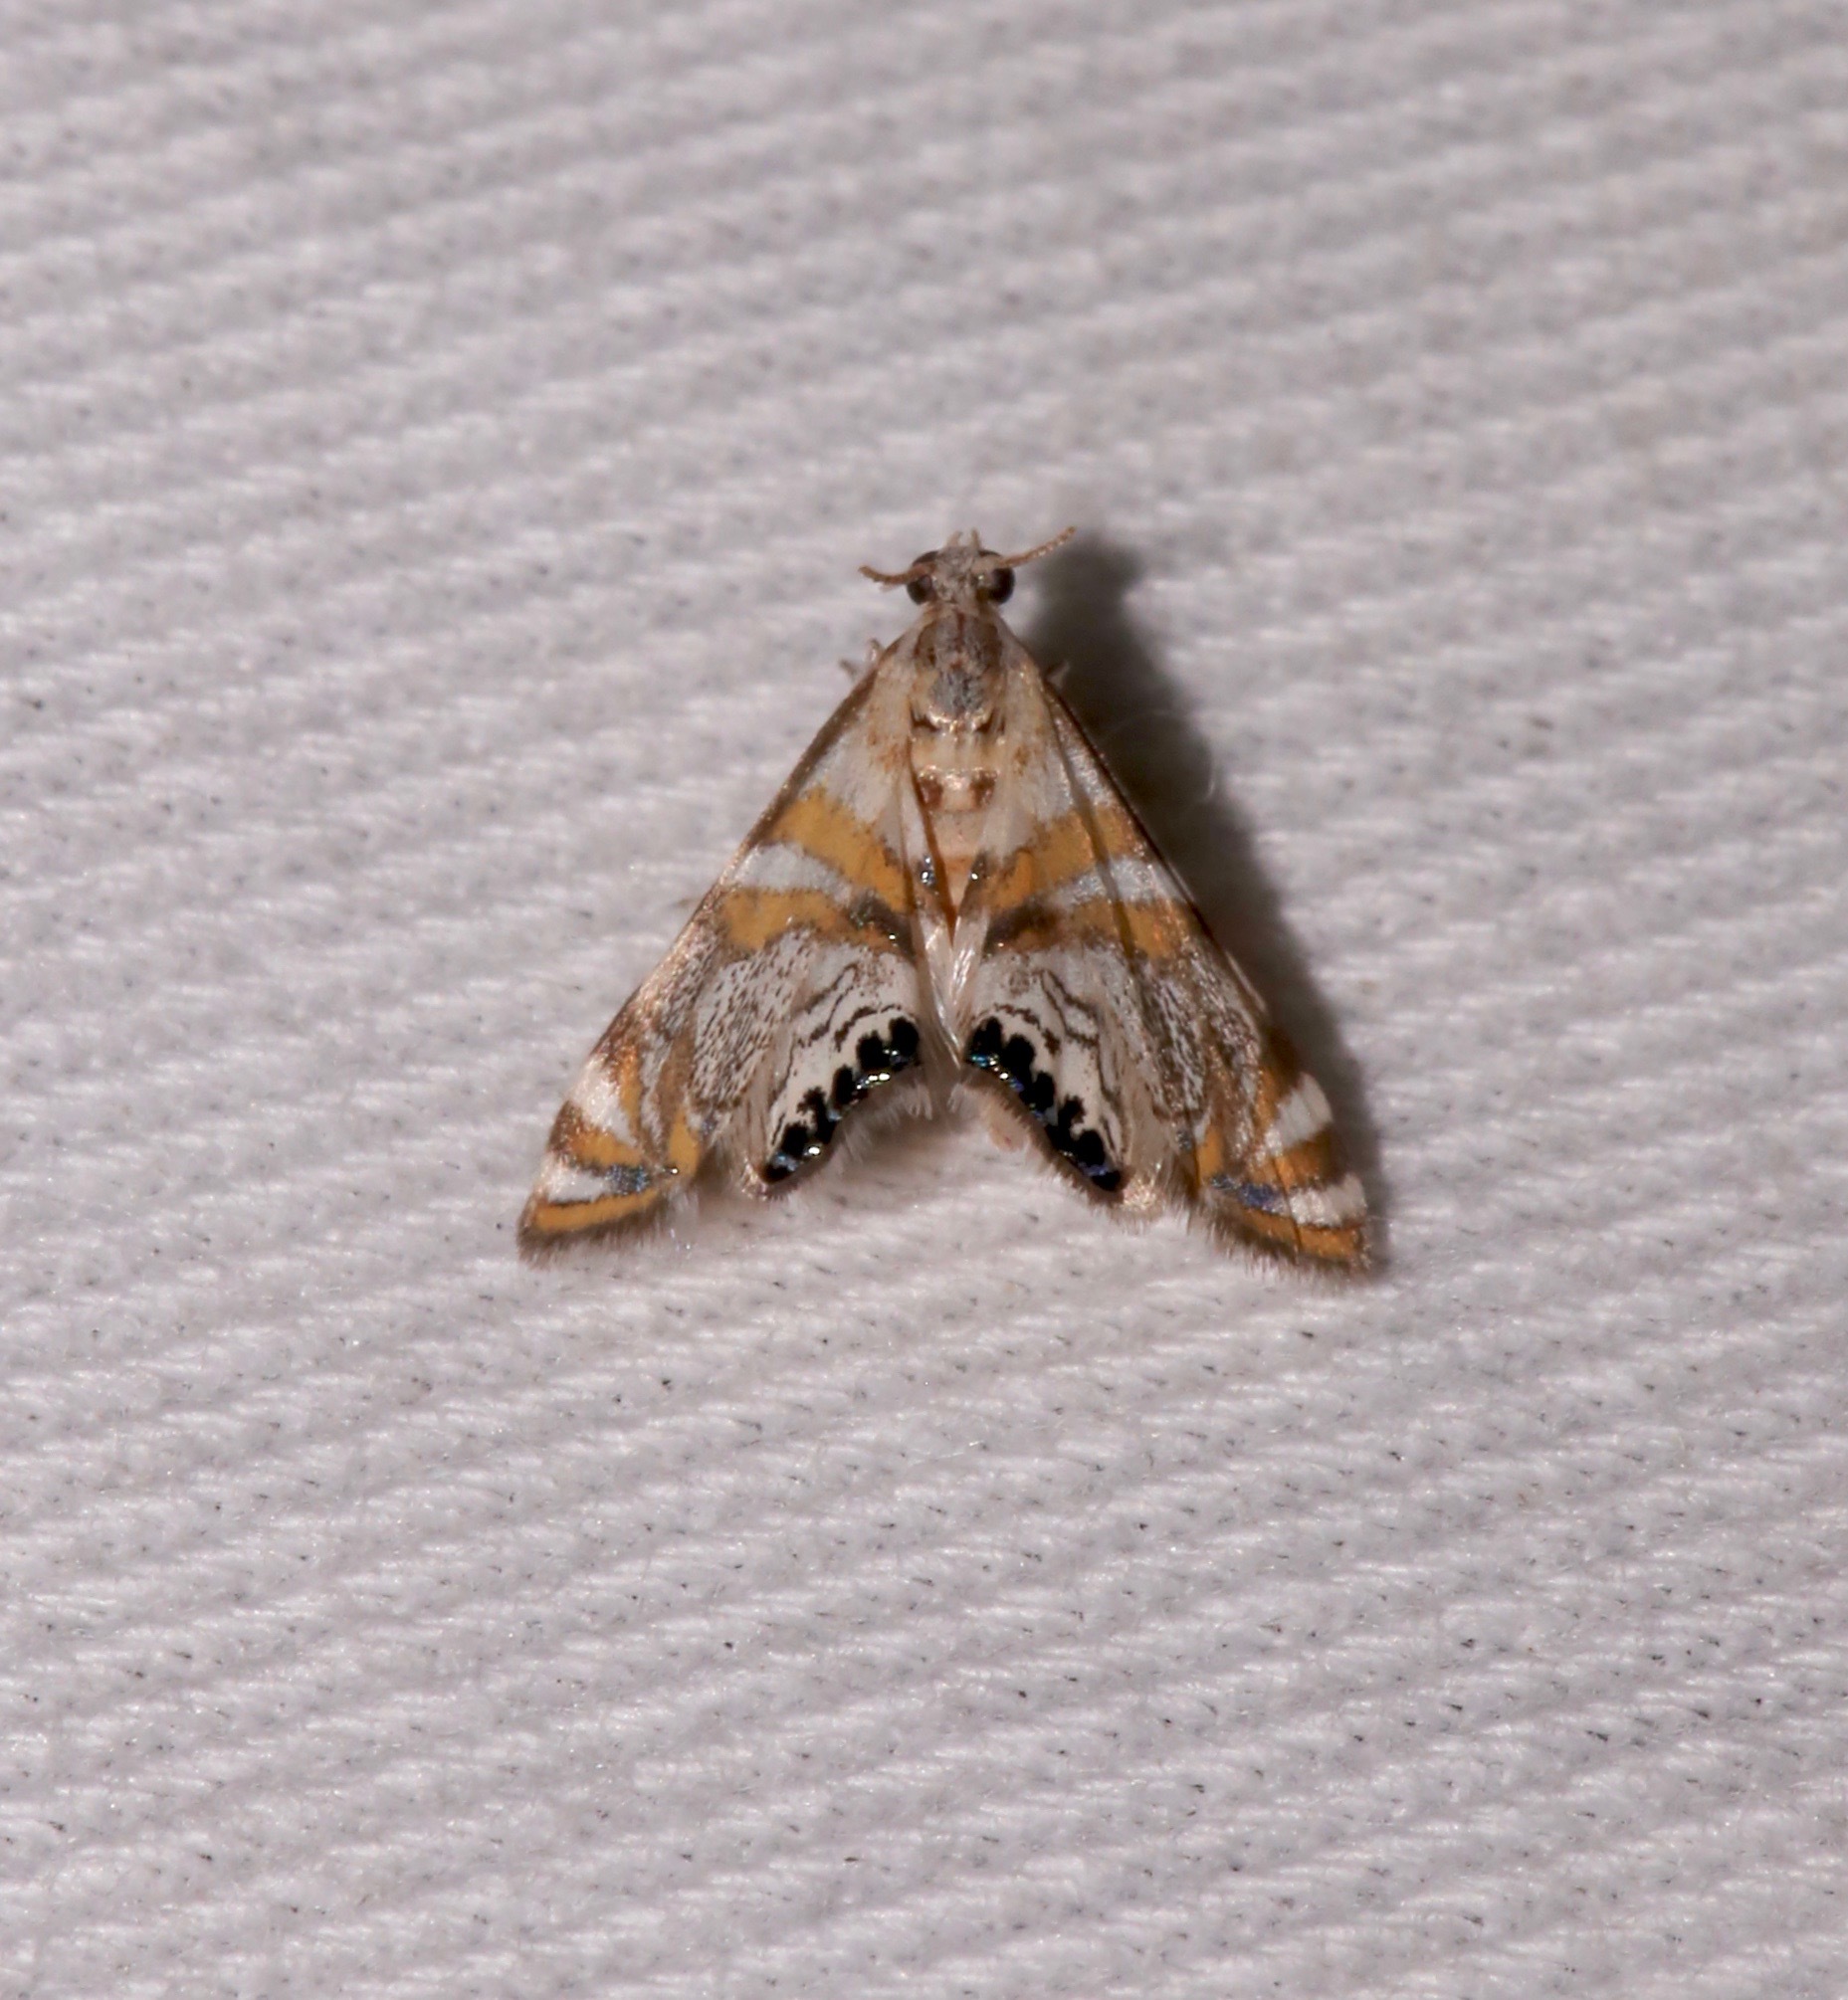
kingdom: Animalia
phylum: Arthropoda
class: Insecta
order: Lepidoptera
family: Crambidae
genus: Petrophila
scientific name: Petrophila kearfottalis
